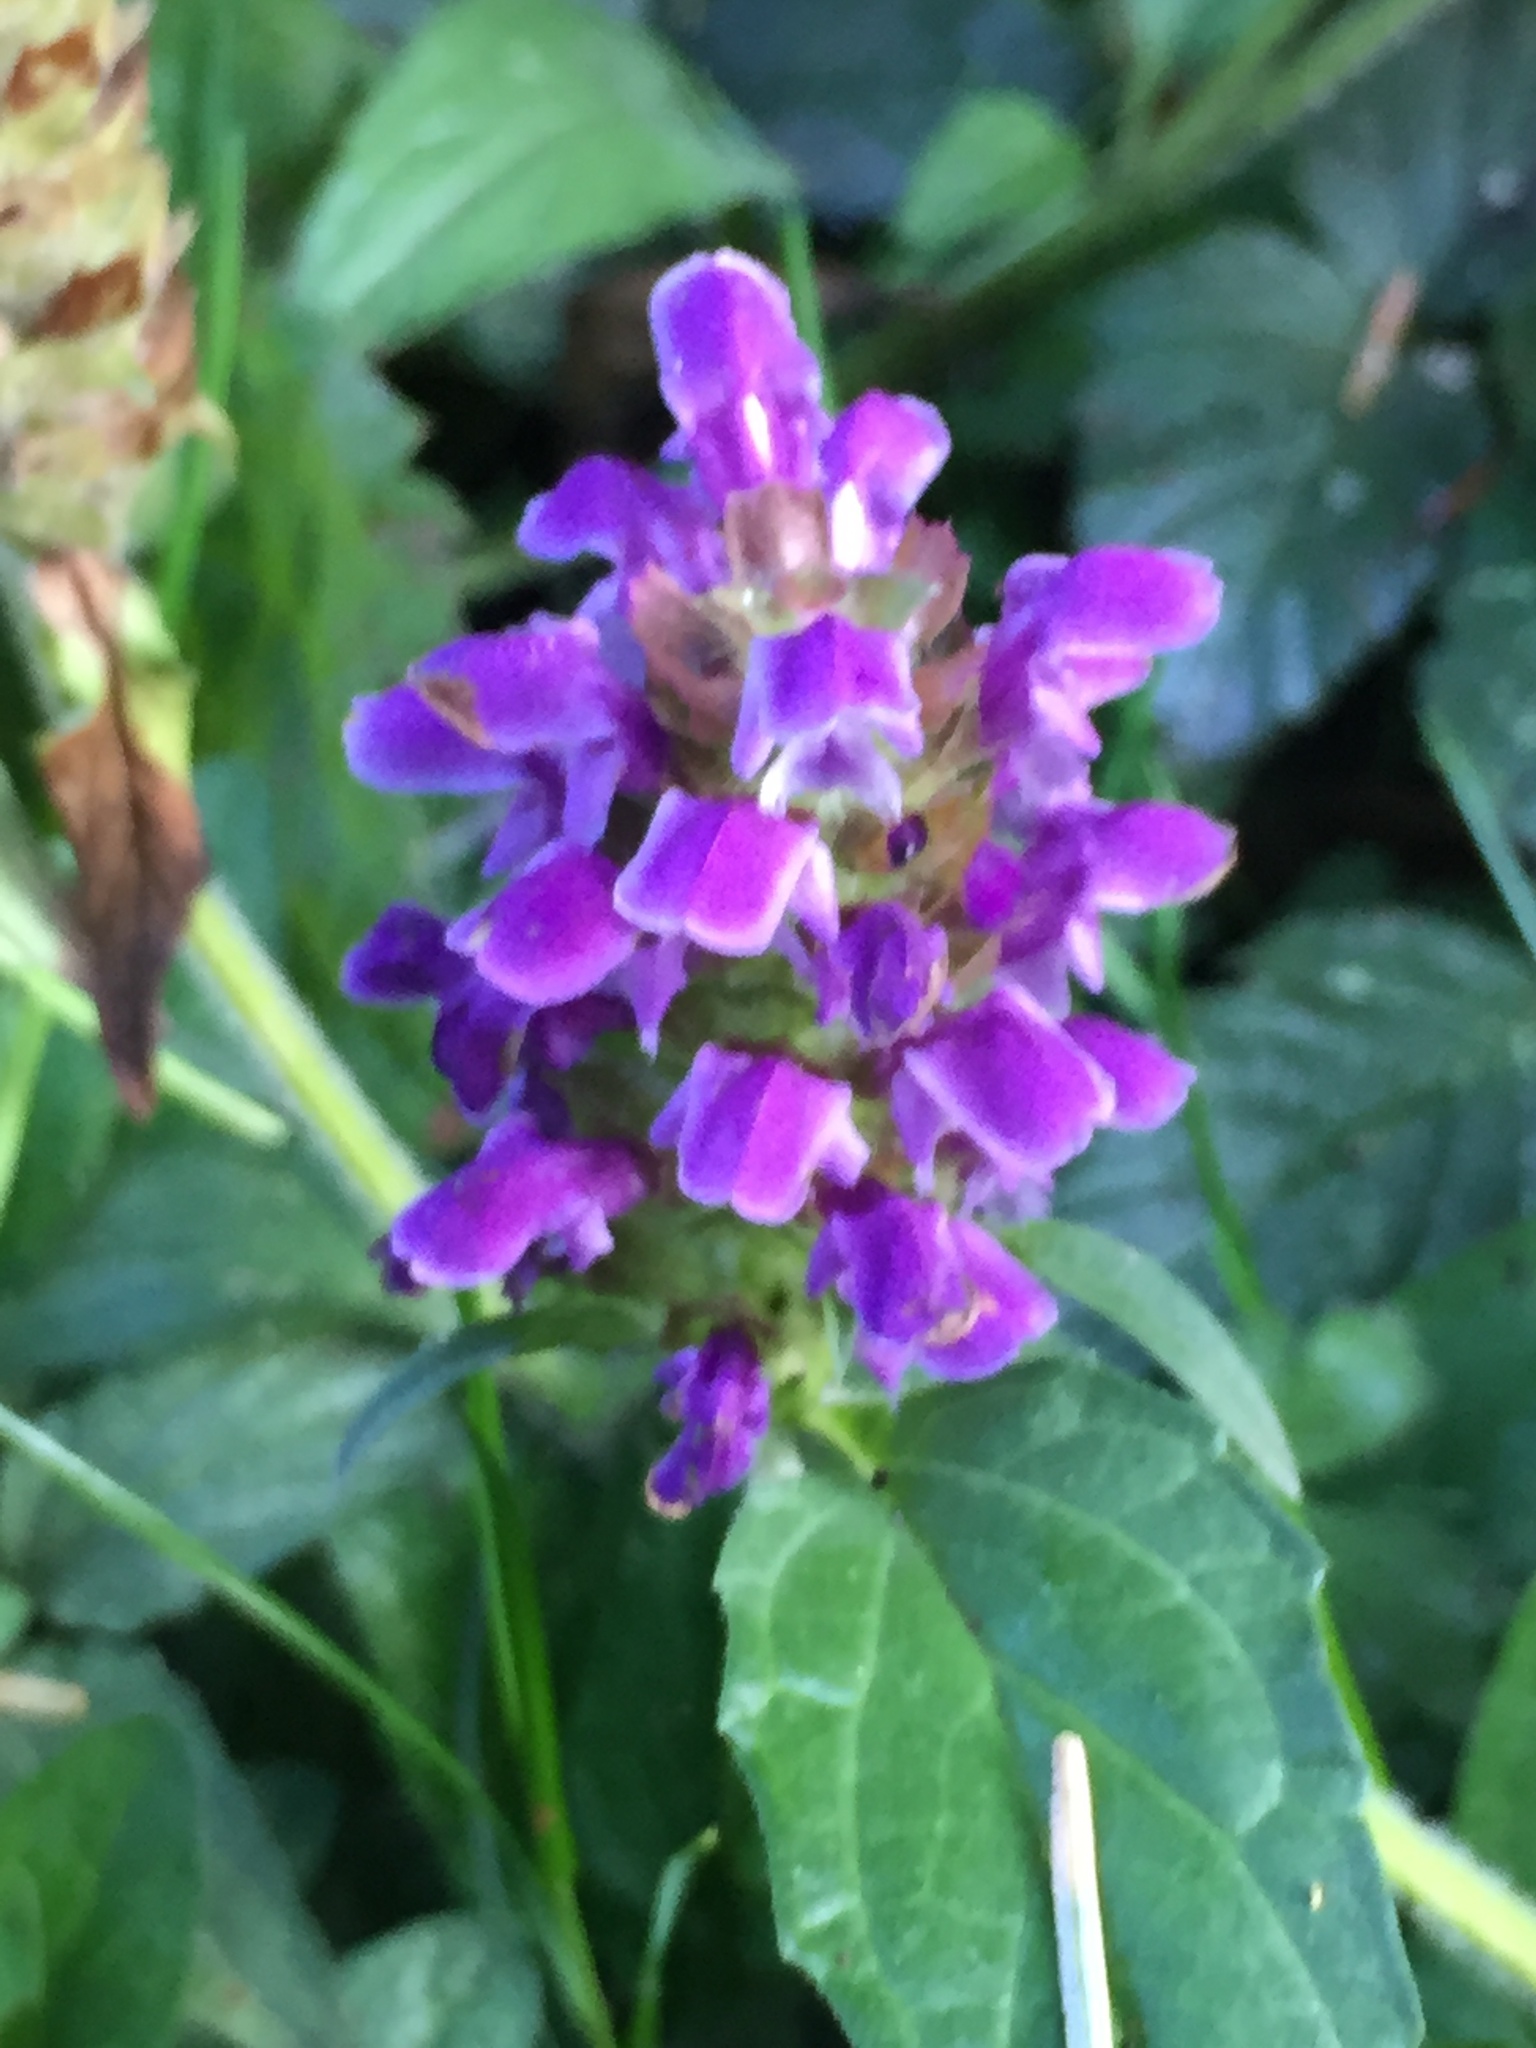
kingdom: Plantae
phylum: Tracheophyta
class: Magnoliopsida
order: Lamiales
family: Lamiaceae
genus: Prunella
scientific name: Prunella vulgaris
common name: Heal-all
